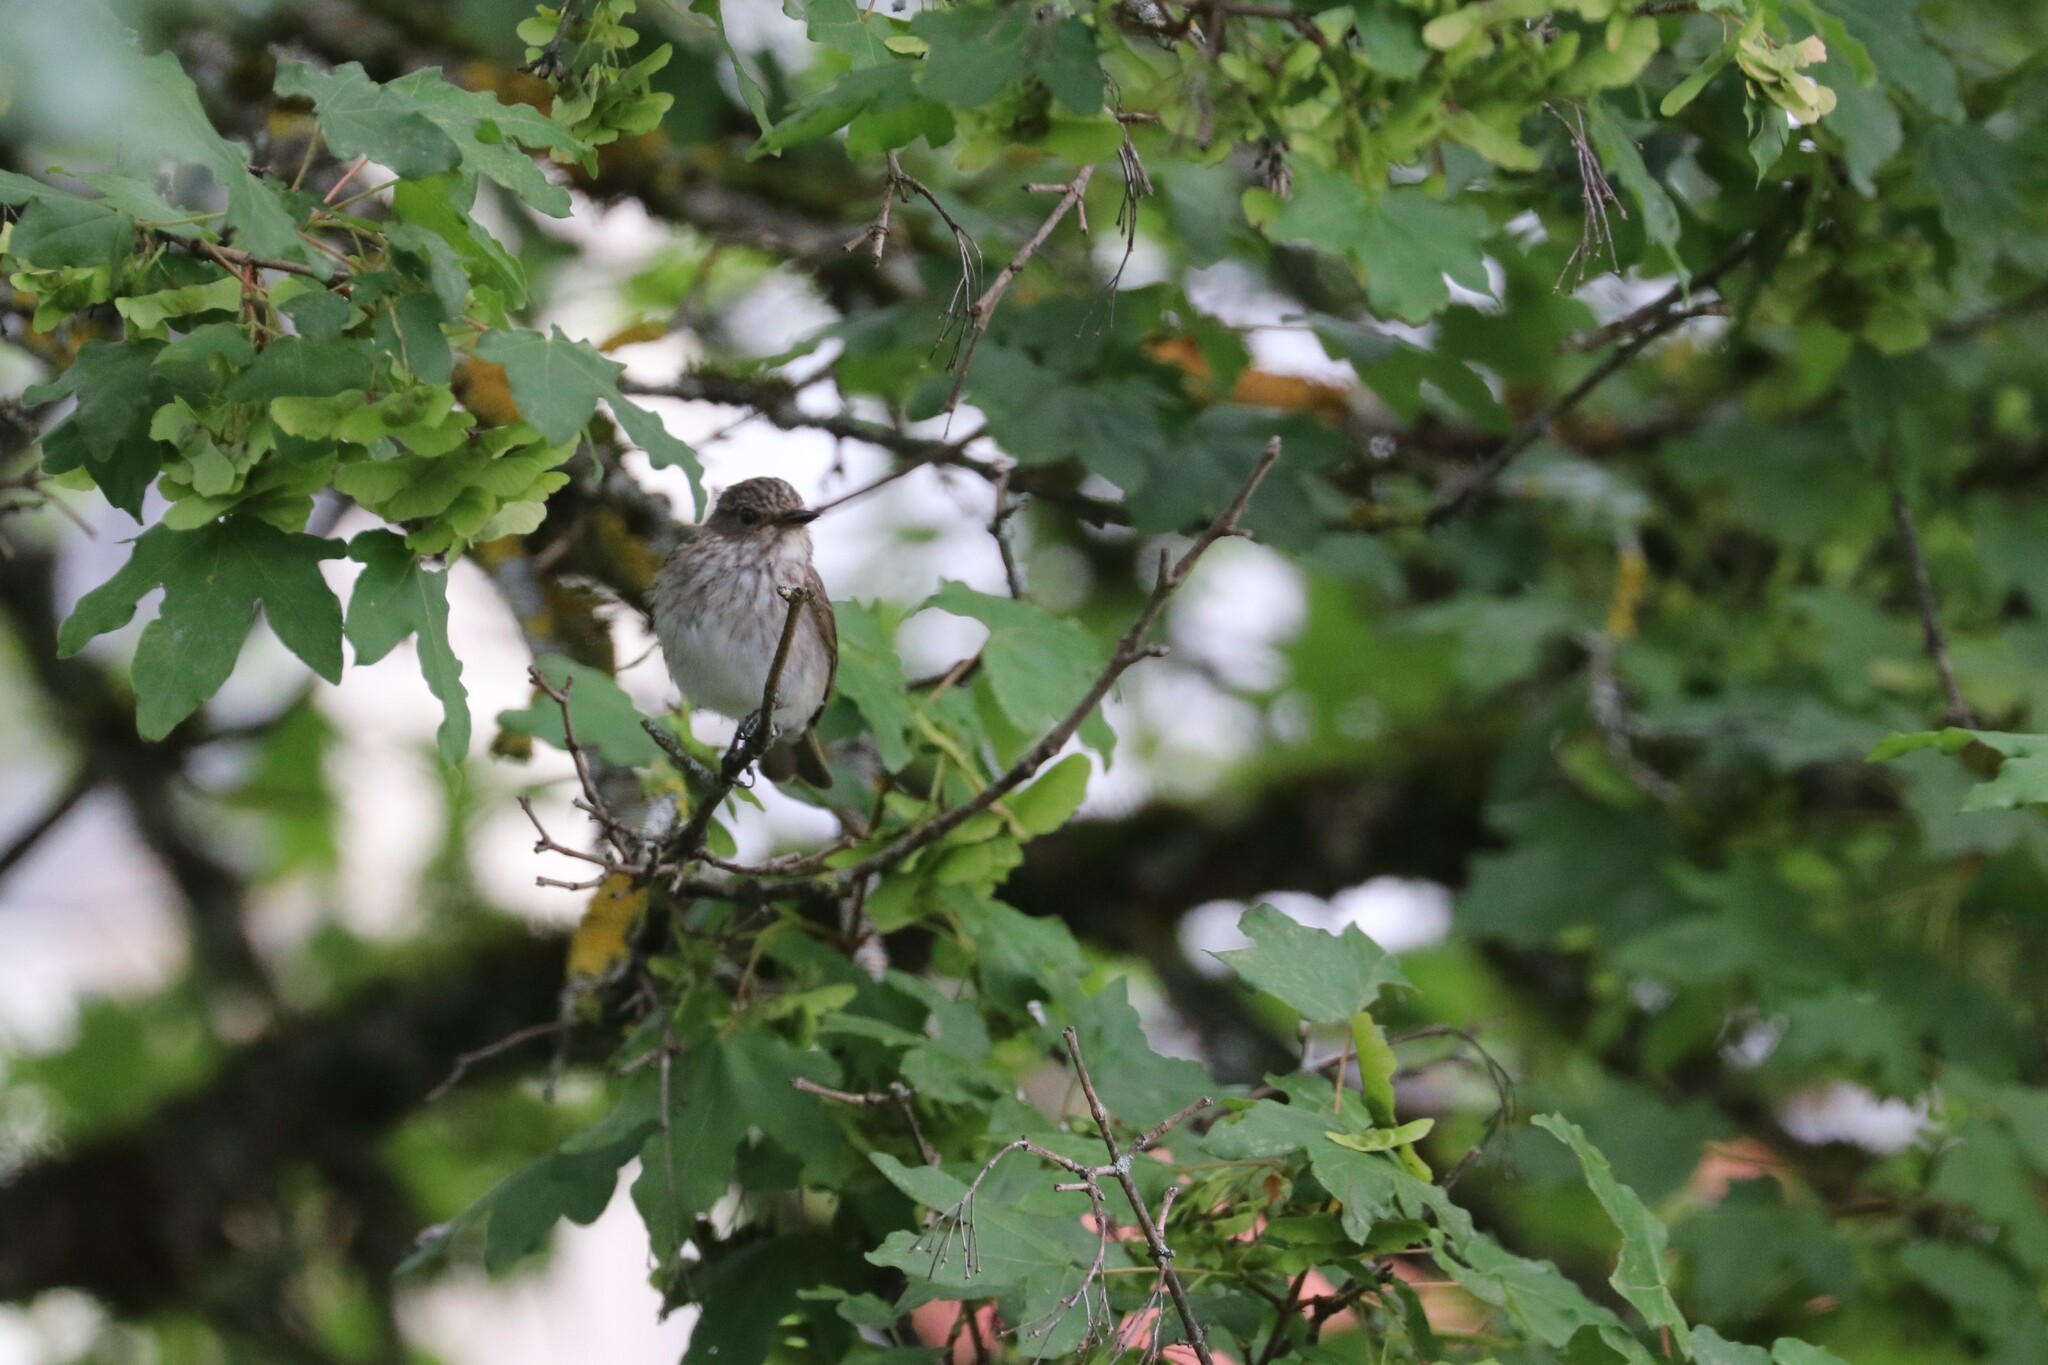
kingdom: Animalia
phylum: Chordata
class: Aves
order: Passeriformes
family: Muscicapidae
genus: Muscicapa
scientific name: Muscicapa striata
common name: Spotted flycatcher
